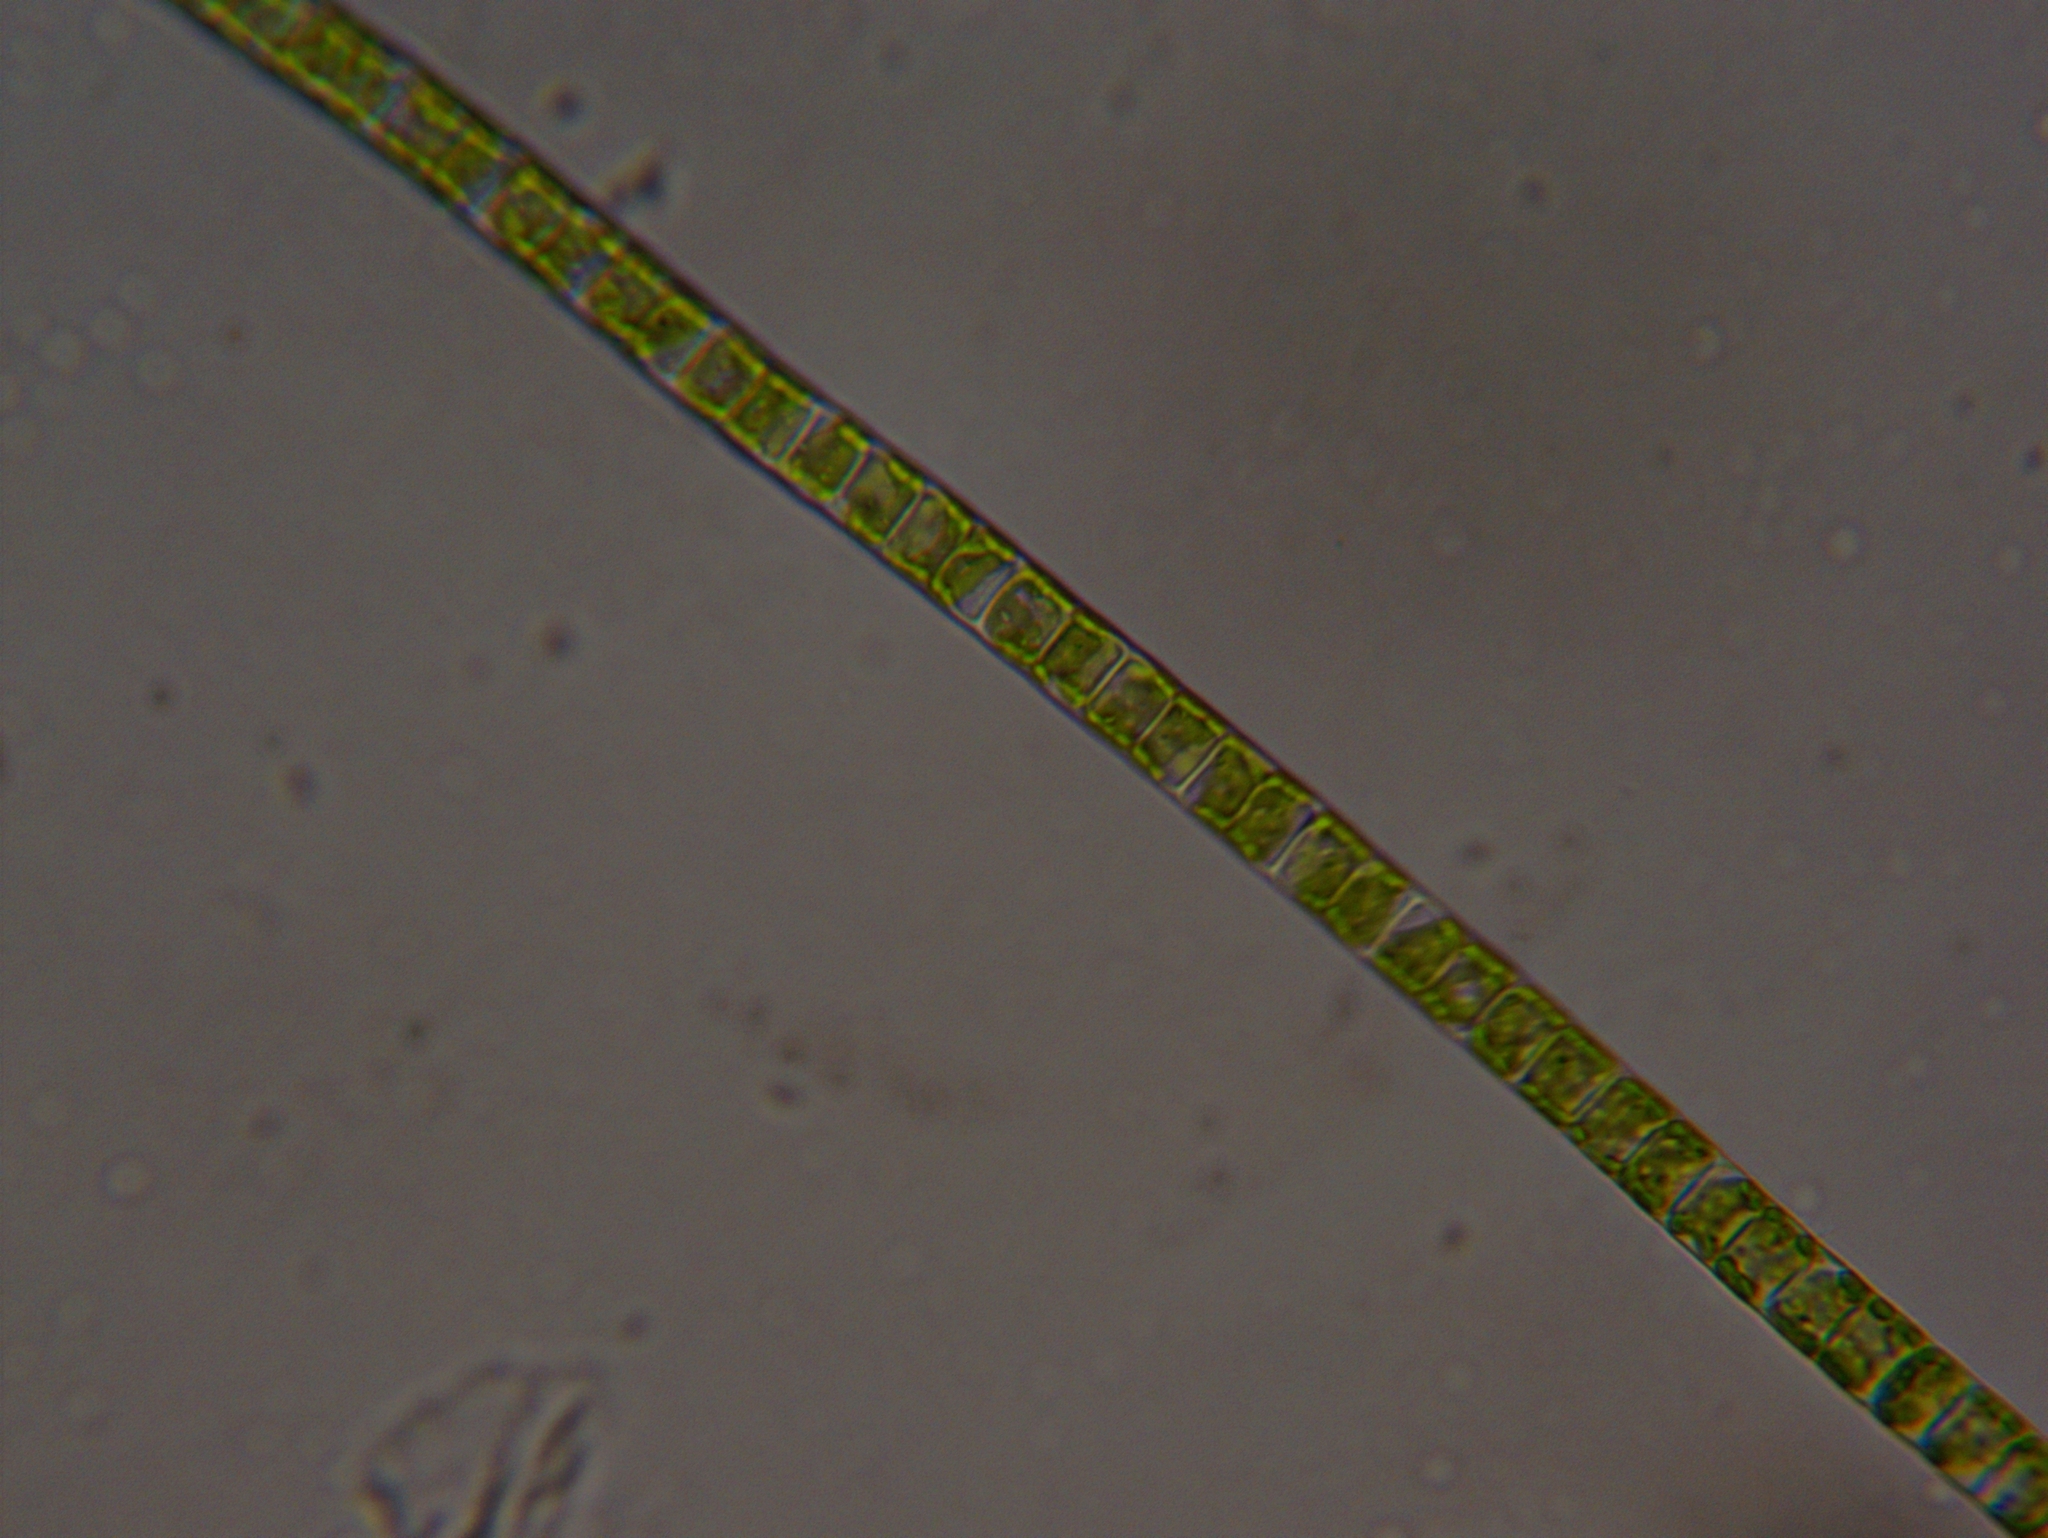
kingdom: Plantae
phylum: Chlorophyta
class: Ulvophyceae
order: Ulotrichales
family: Ulotrichaceae
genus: Ulothrix
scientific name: Ulothrix
